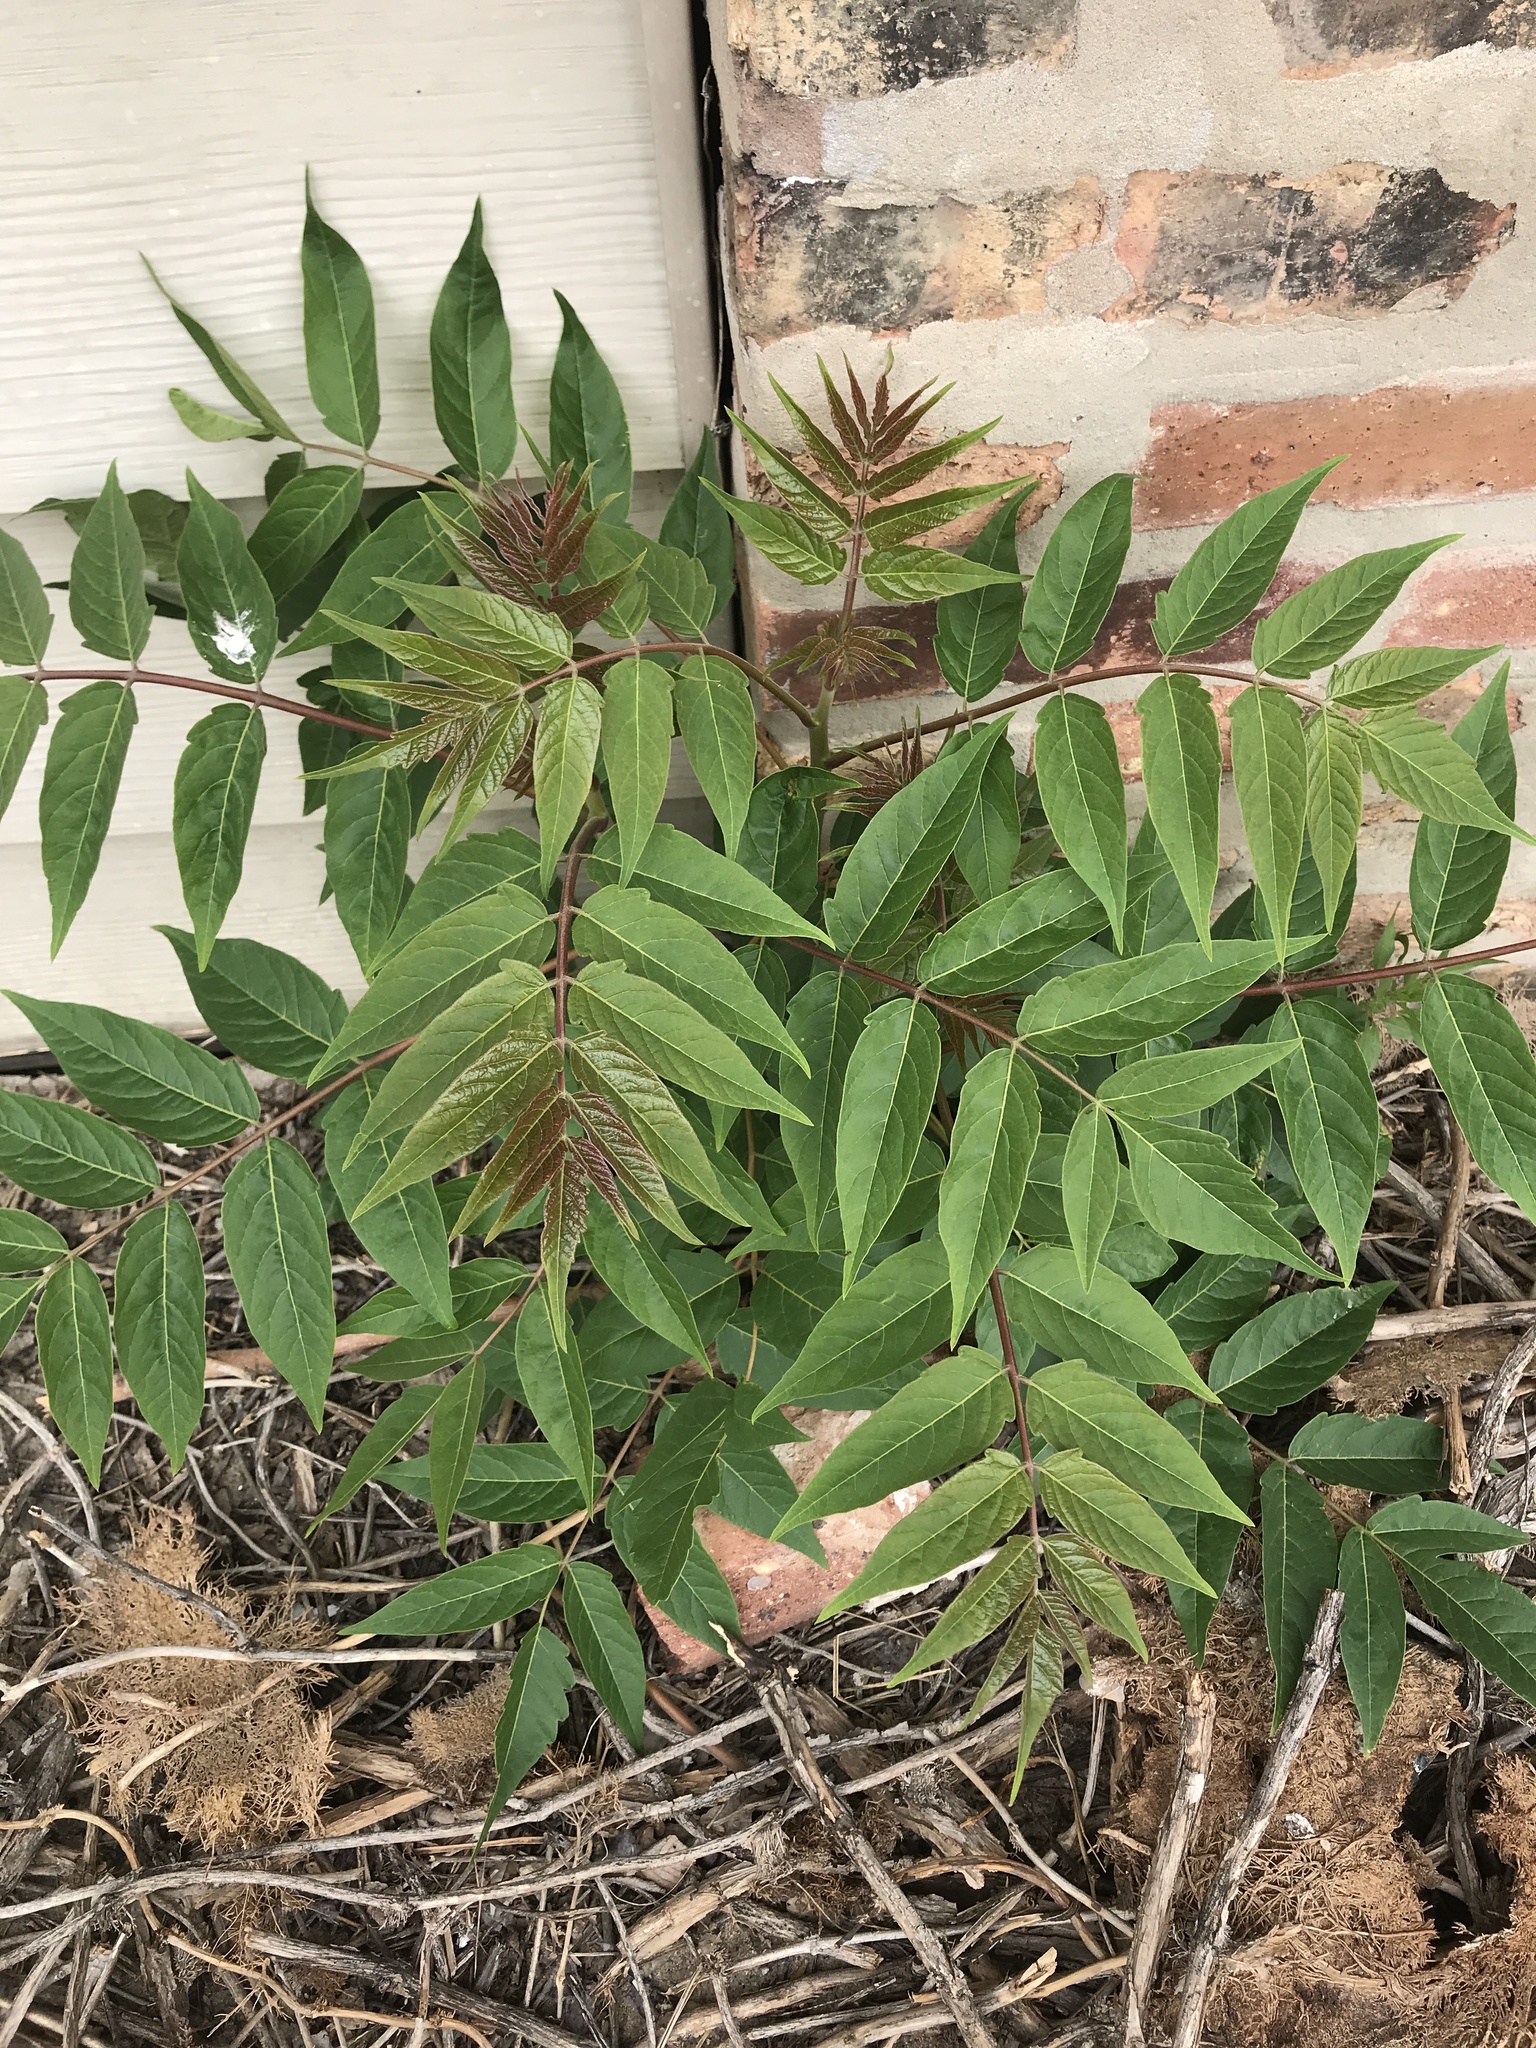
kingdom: Plantae
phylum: Tracheophyta
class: Magnoliopsida
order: Sapindales
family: Simaroubaceae
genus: Ailanthus
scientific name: Ailanthus altissima
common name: Tree-of-heaven
